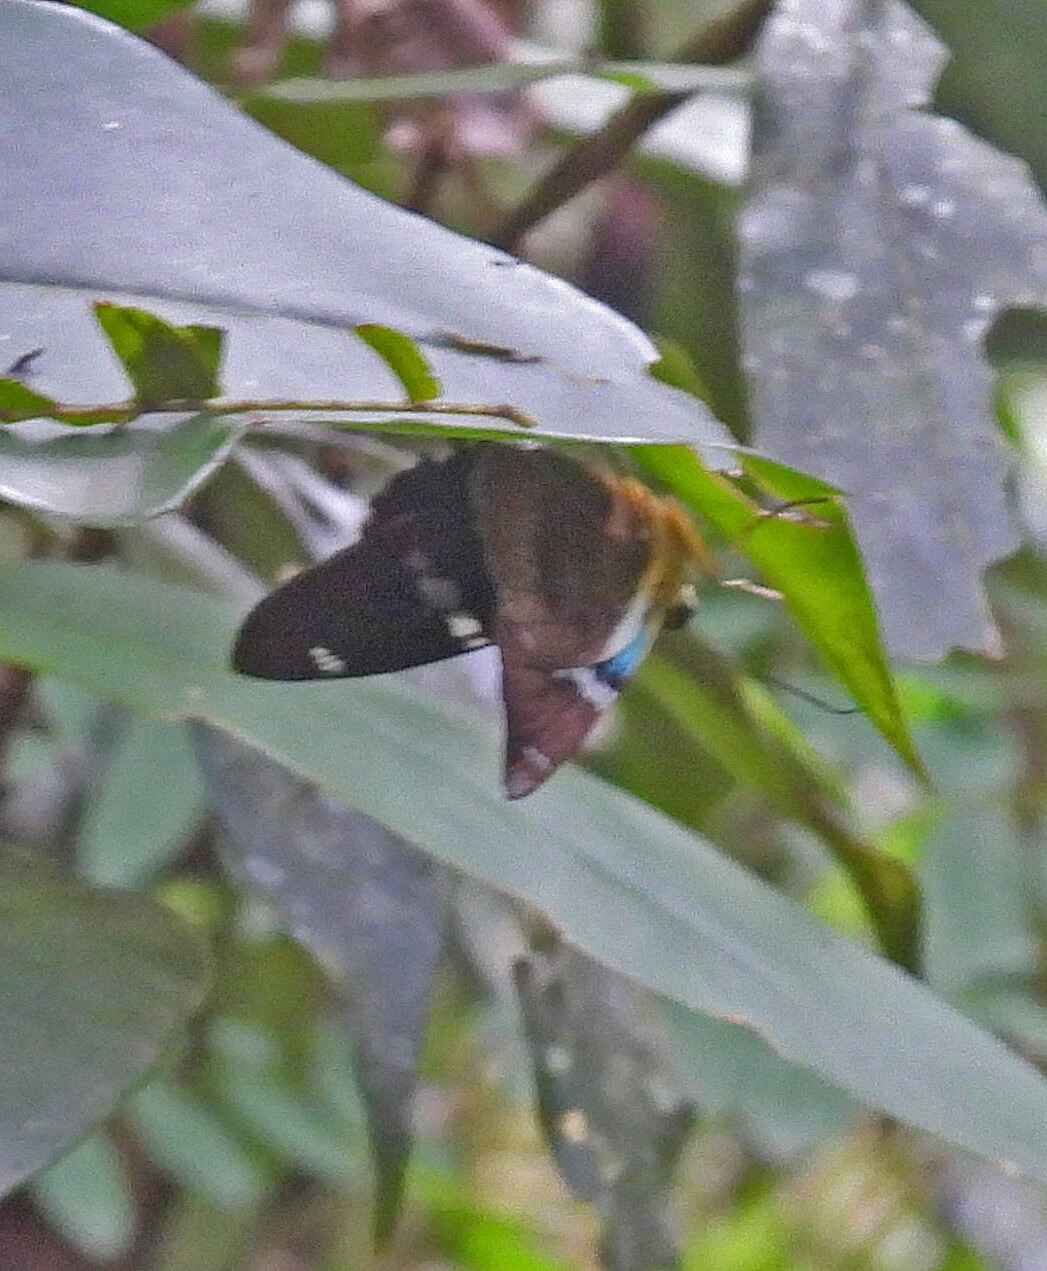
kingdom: Animalia
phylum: Arthropoda
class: Insecta
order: Lepidoptera
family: Hesperiidae
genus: Astraptes
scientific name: Astraptes fulgerator
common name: Two-barred flasher
